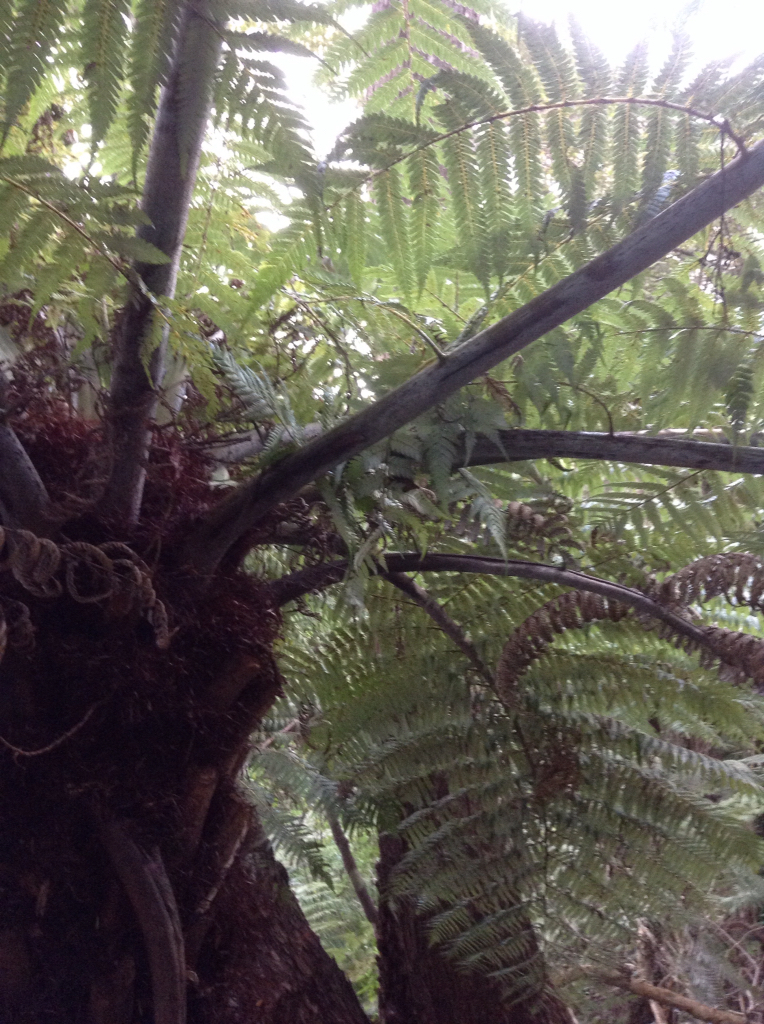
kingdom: Plantae
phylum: Tracheophyta
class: Polypodiopsida
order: Cyatheales
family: Cyatheaceae
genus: Alsophila
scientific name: Alsophila dealbata
